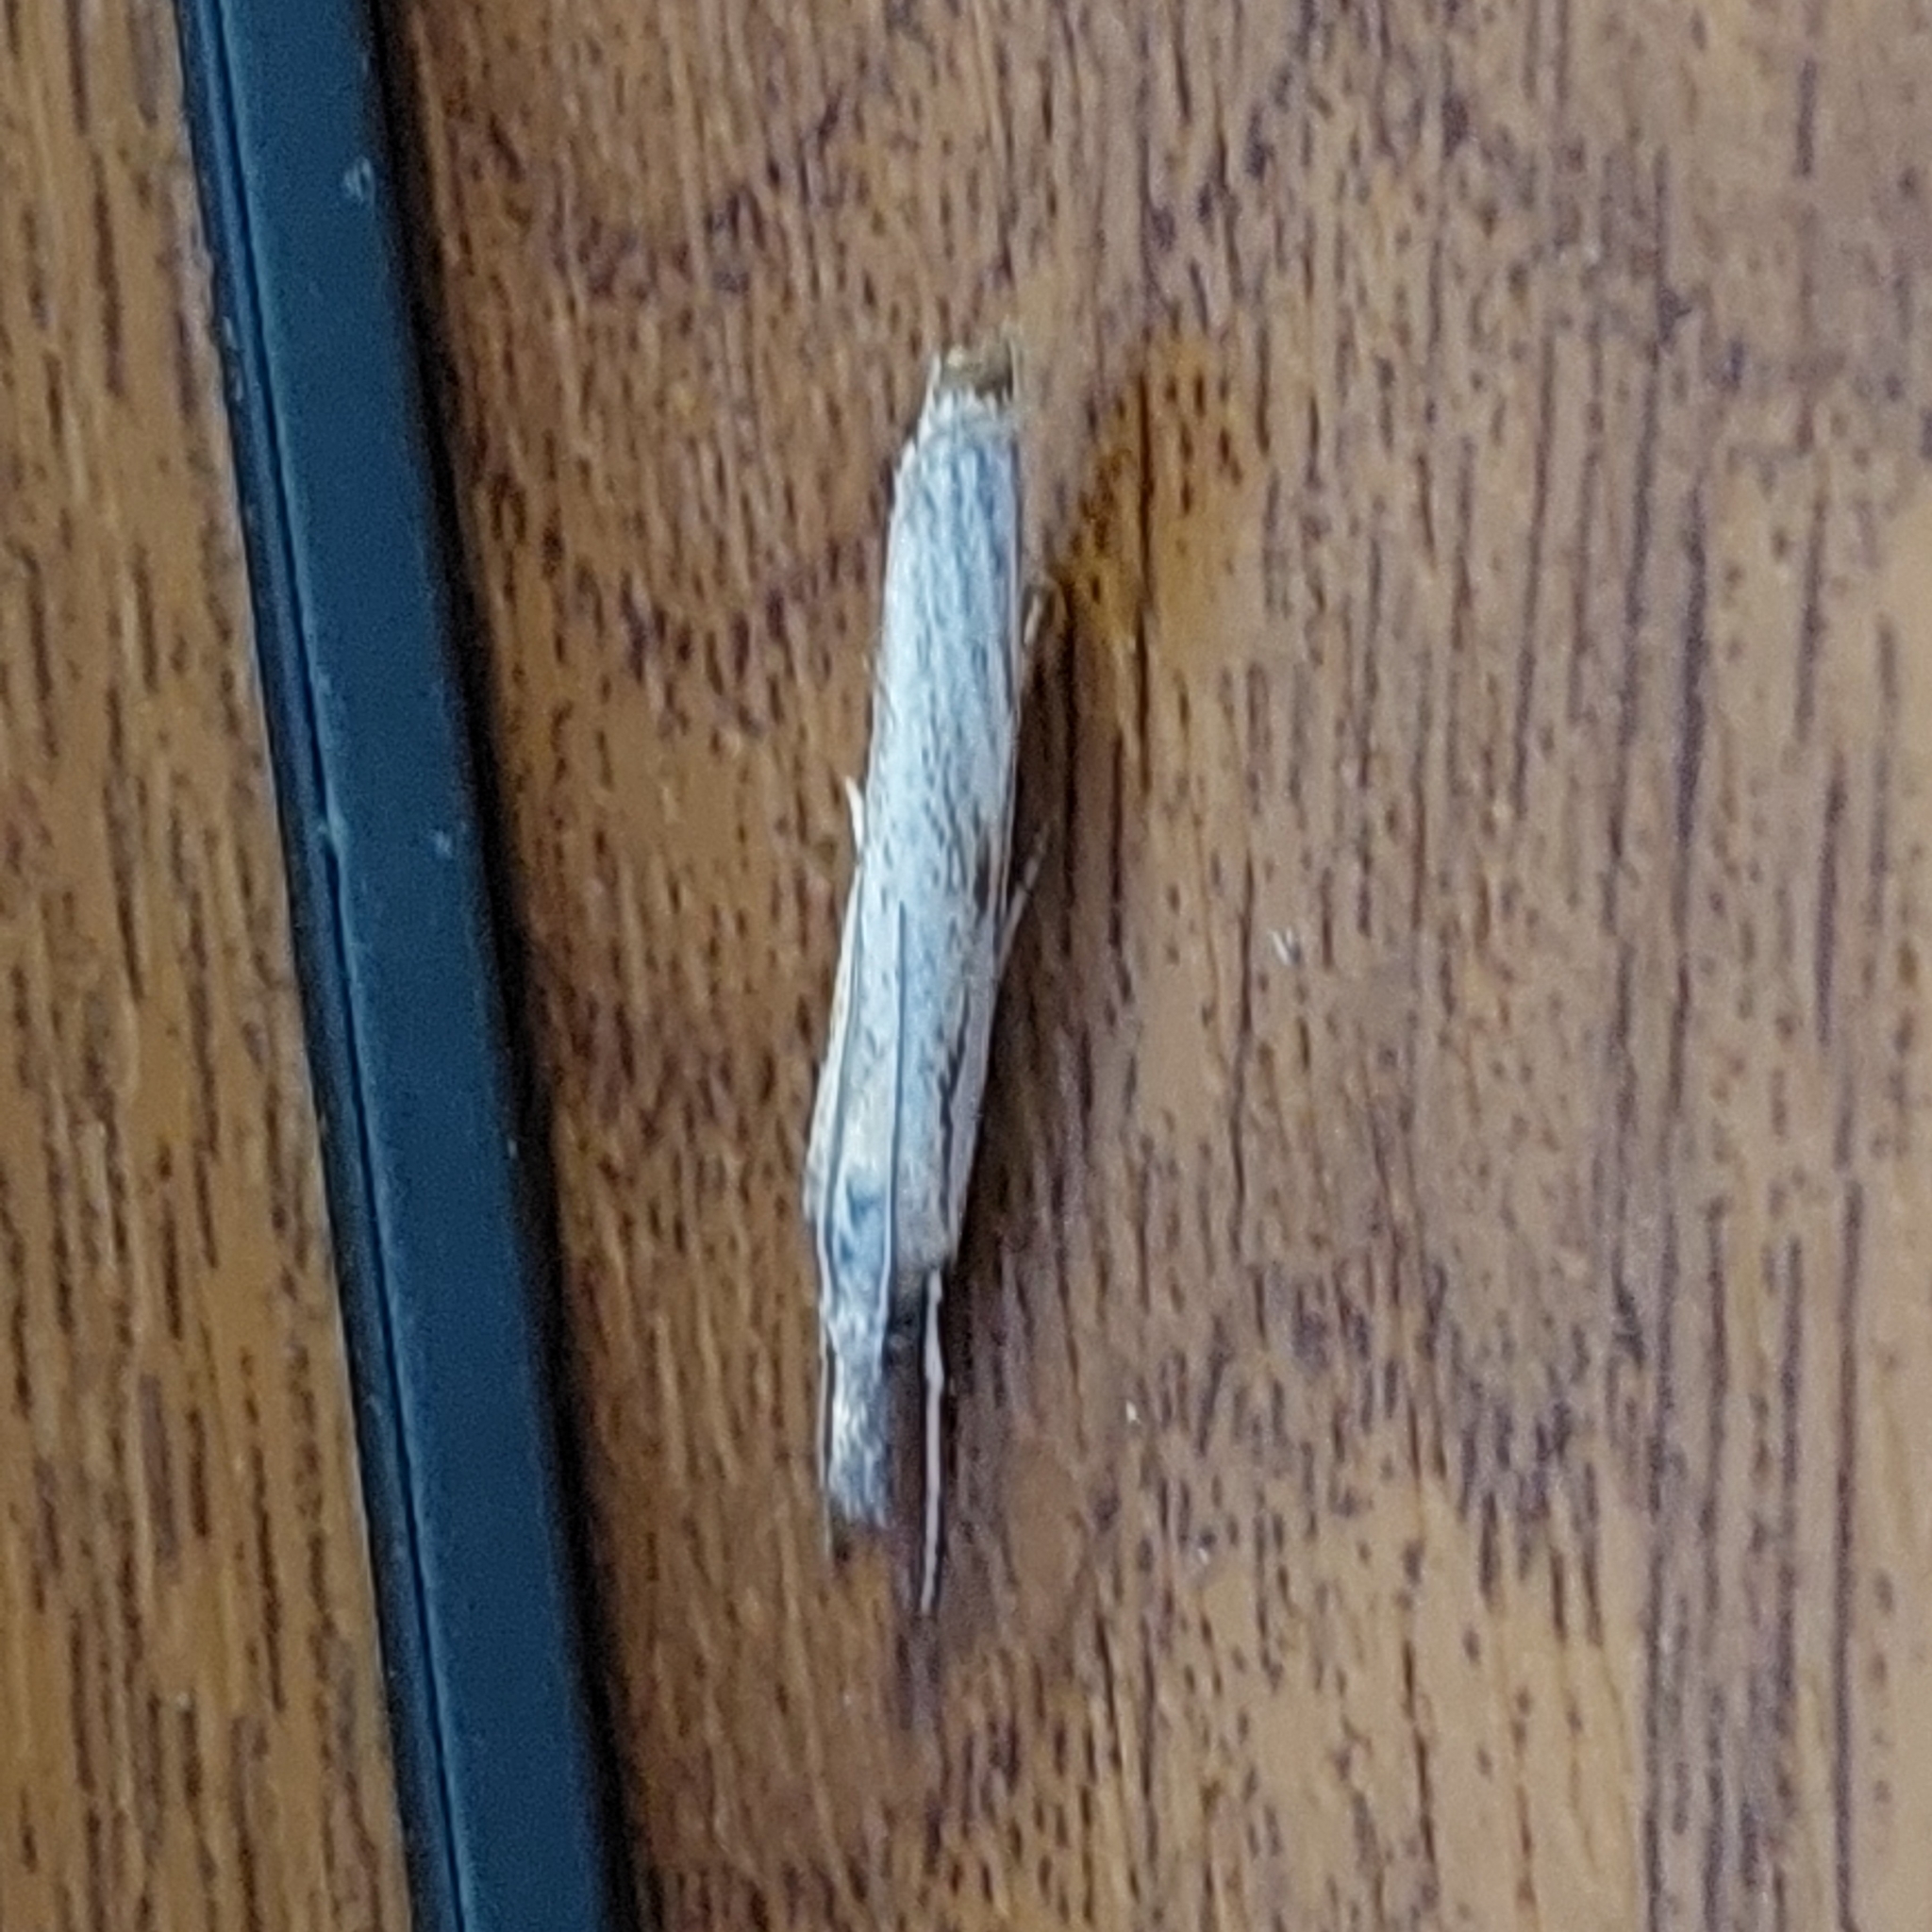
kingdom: Animalia
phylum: Arthropoda
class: Insecta
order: Lepidoptera
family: Crambidae
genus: Agriphila
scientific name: Agriphila tristellus
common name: Common grass-veneer
